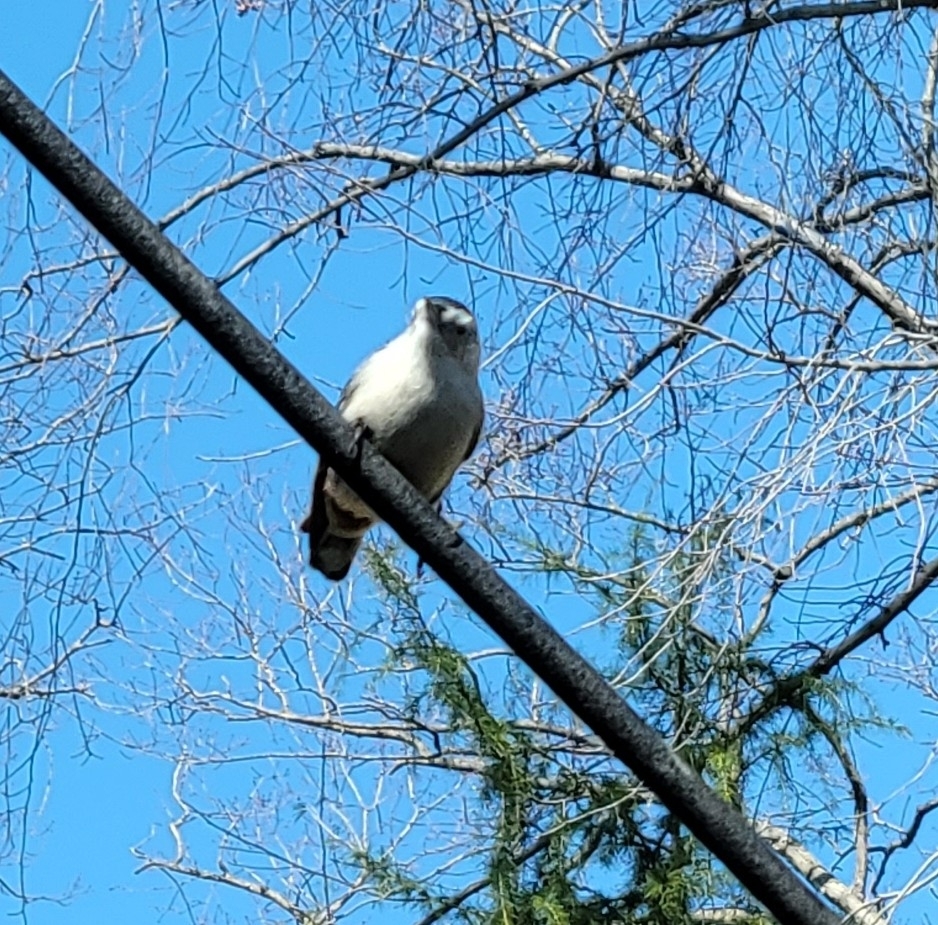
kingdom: Animalia
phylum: Chordata
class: Aves
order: Passeriformes
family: Sittidae
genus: Sitta
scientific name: Sitta carolinensis
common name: White-breasted nuthatch
